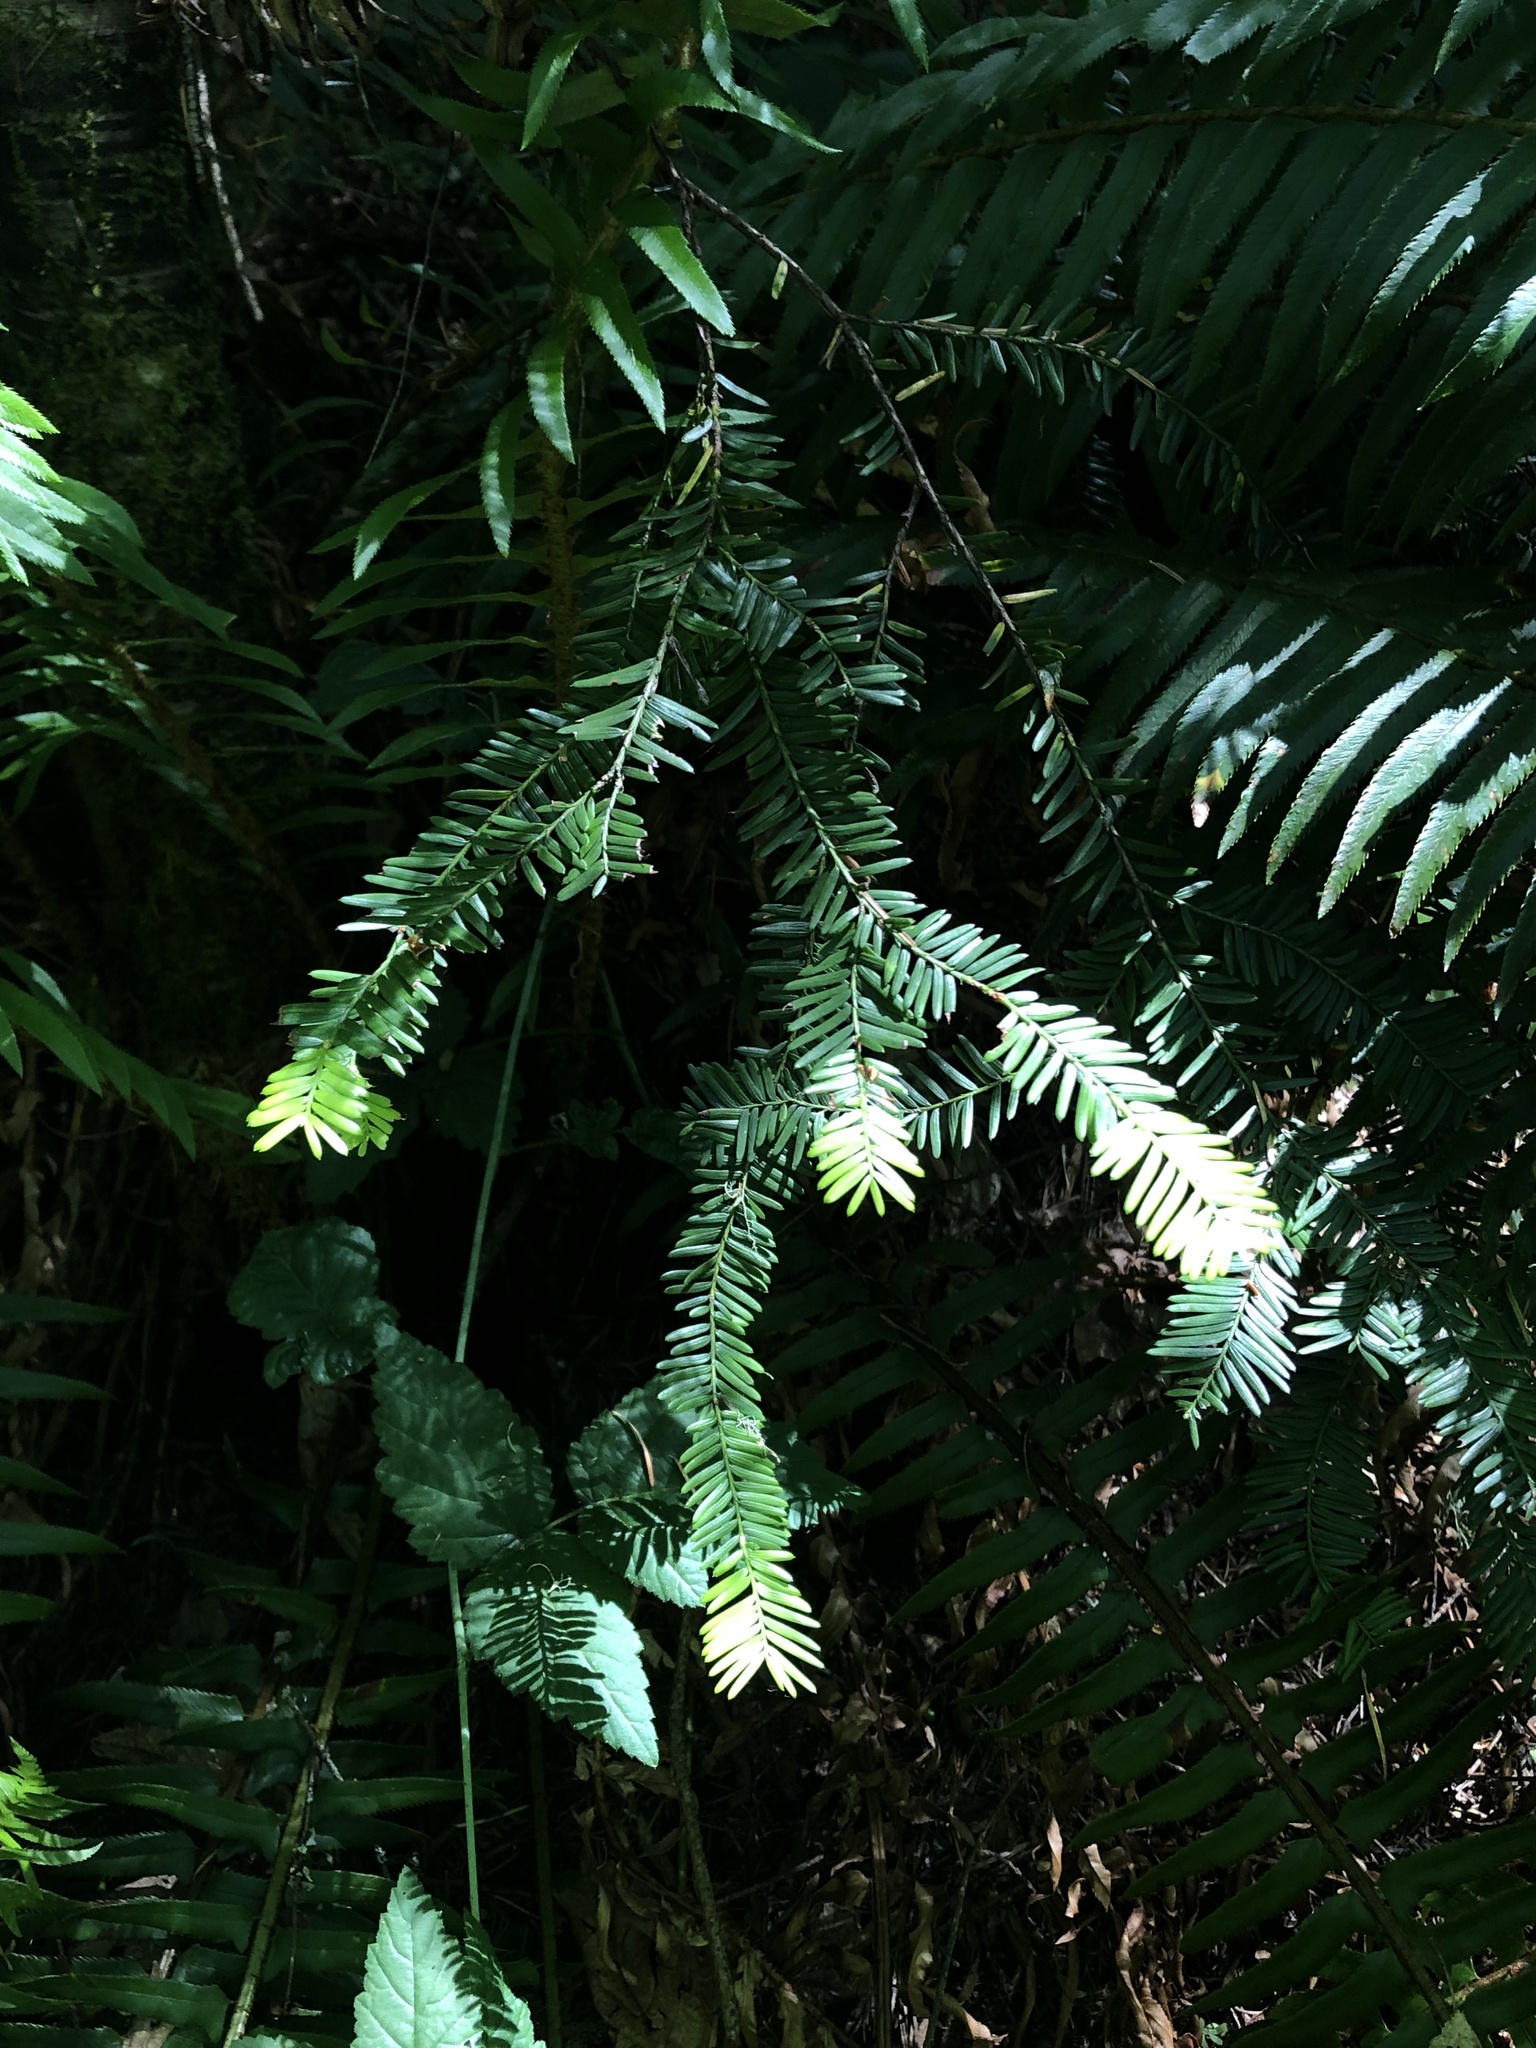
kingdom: Plantae
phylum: Tracheophyta
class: Pinopsida
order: Pinales
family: Taxaceae
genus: Taxus
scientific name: Taxus brevifolia
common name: Pacific yew
